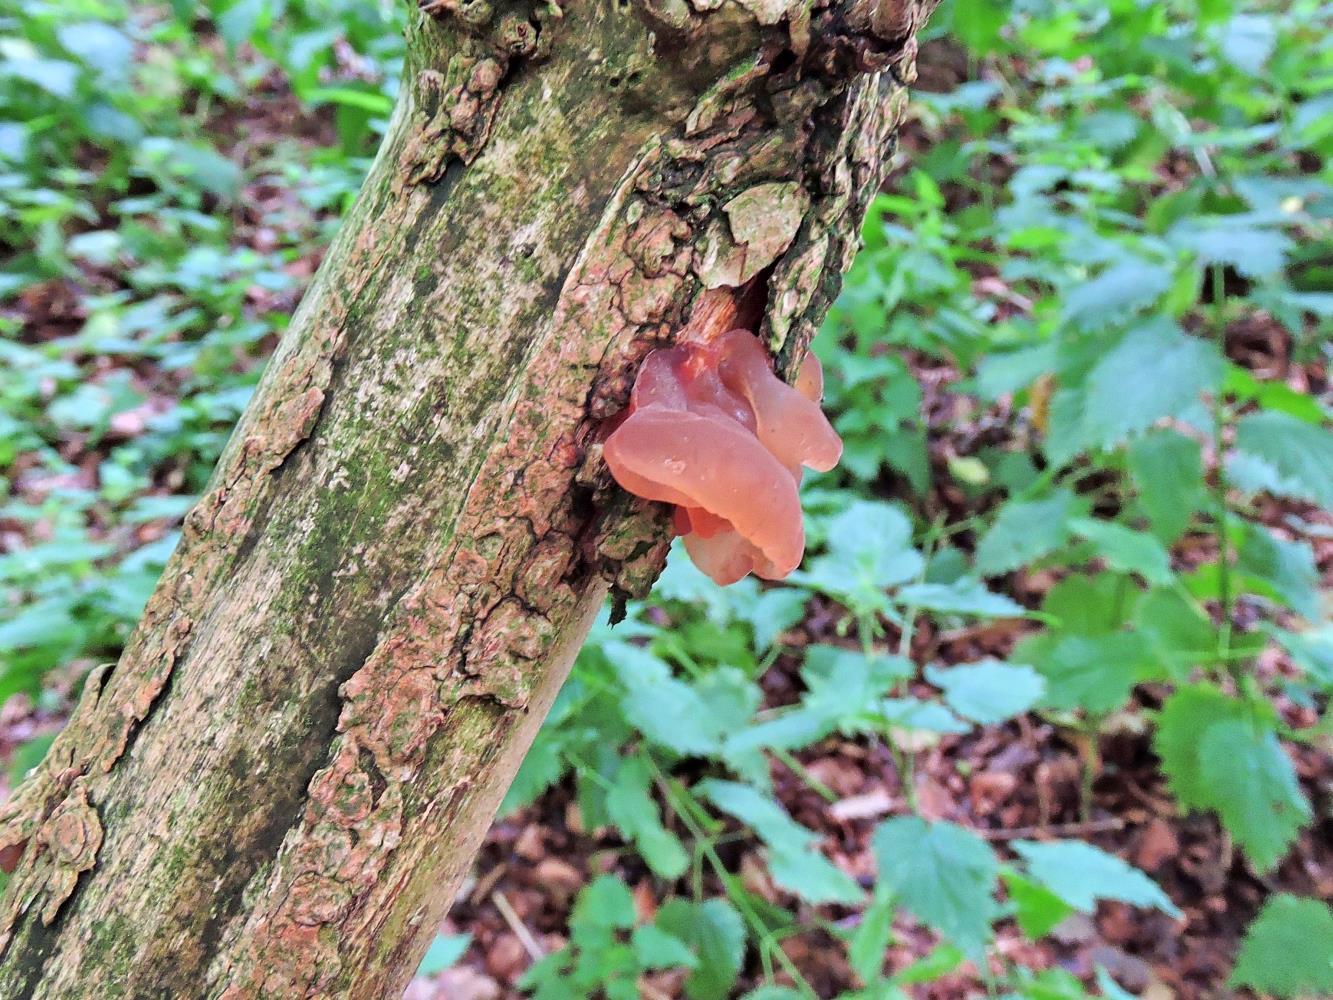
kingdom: Fungi
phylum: Basidiomycota
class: Agaricomycetes
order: Auriculariales
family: Auriculariaceae
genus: Auricularia
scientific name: Auricularia auricula-judae
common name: Jelly ear
